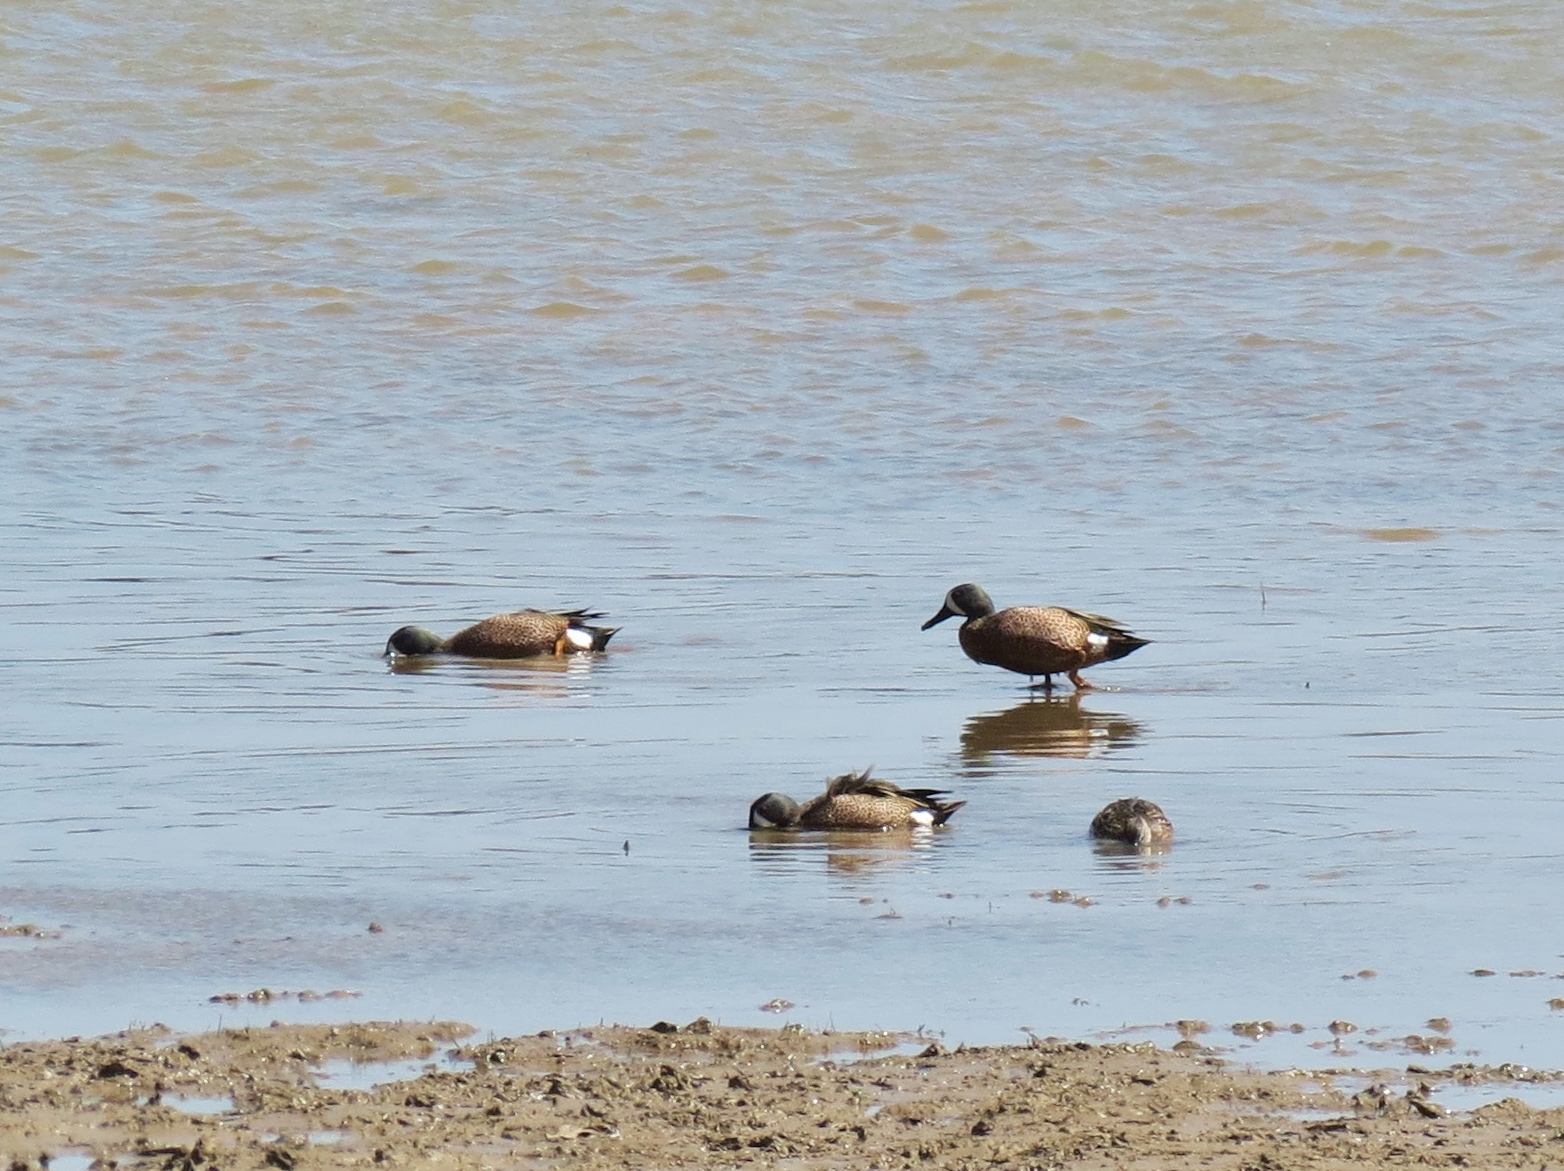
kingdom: Animalia
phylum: Chordata
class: Aves
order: Anseriformes
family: Anatidae
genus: Spatula
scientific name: Spatula discors
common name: Blue-winged teal
